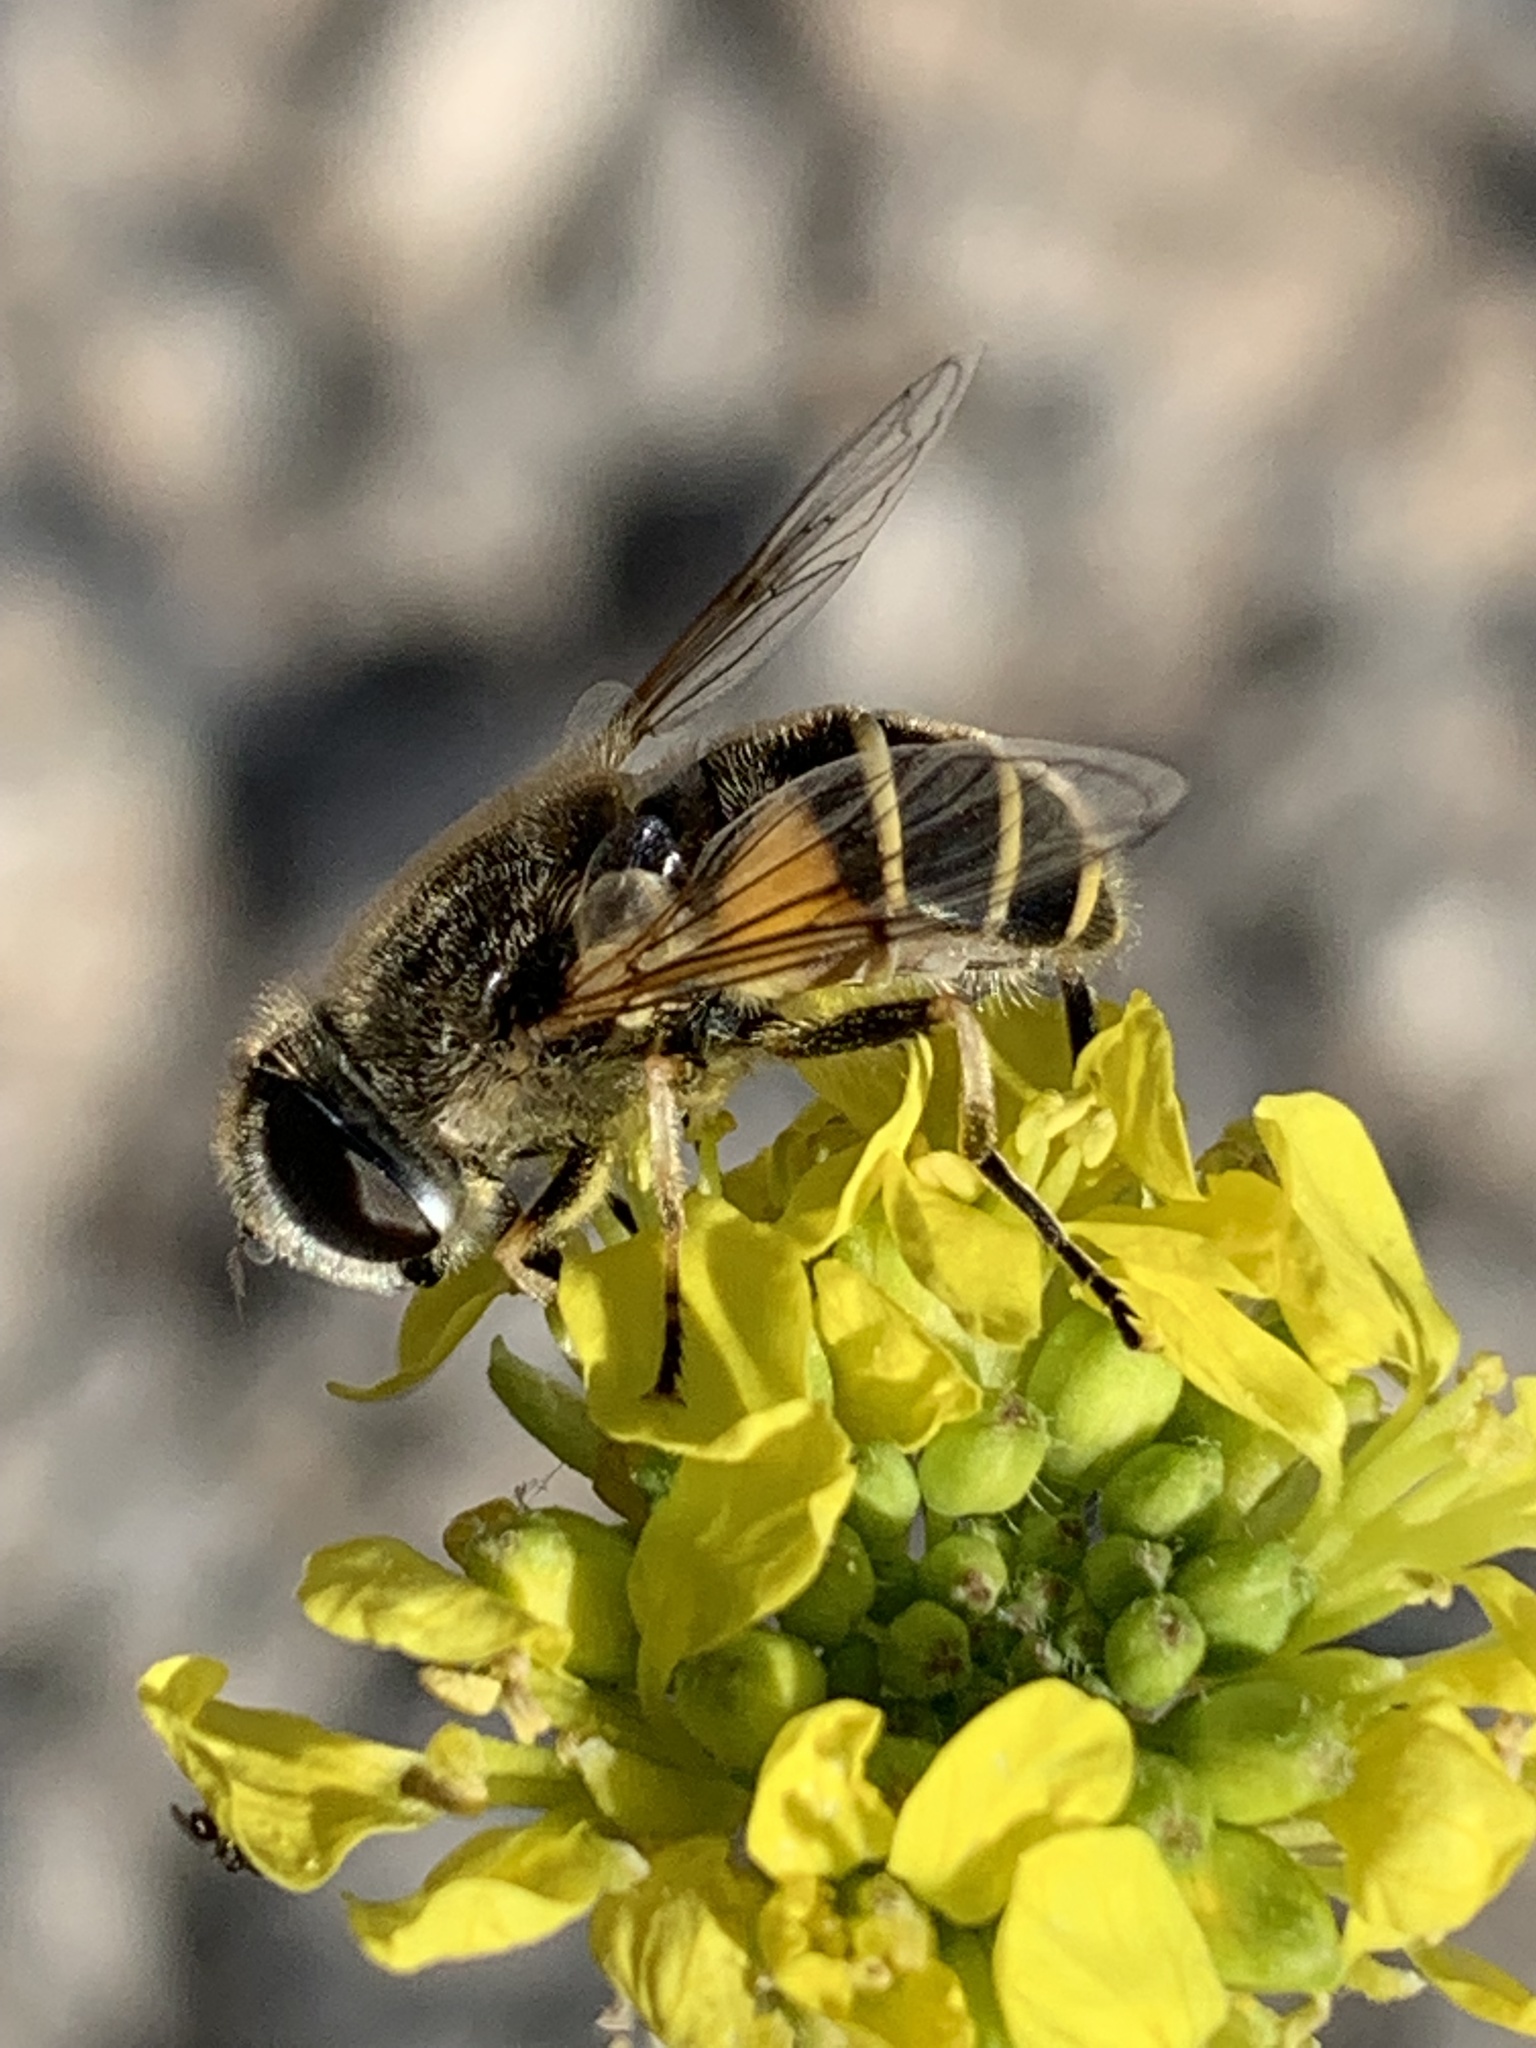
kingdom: Animalia
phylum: Arthropoda
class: Insecta
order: Diptera
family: Syrphidae
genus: Eristalis
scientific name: Eristalis hirta
